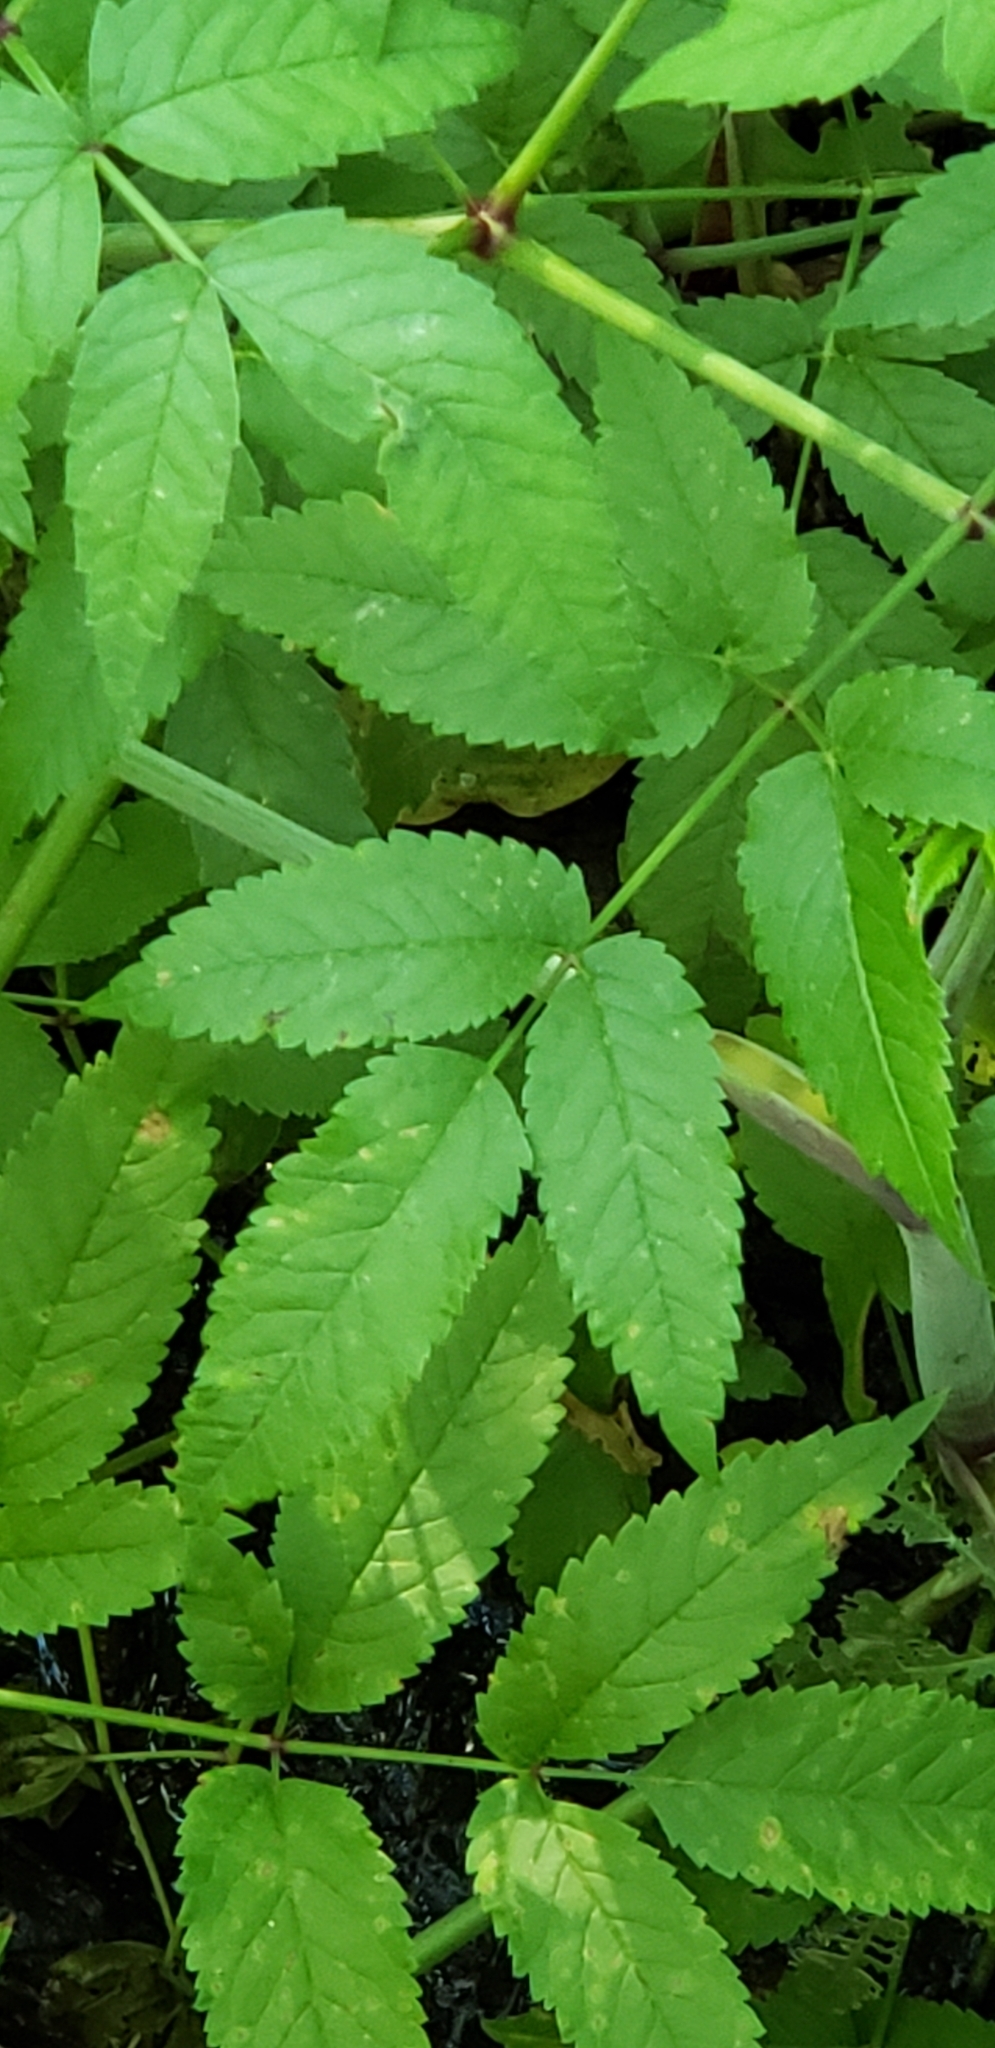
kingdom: Plantae
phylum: Tracheophyta
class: Magnoliopsida
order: Apiales
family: Apiaceae
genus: Cicuta
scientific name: Cicuta maculata
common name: Spotted cowbane
